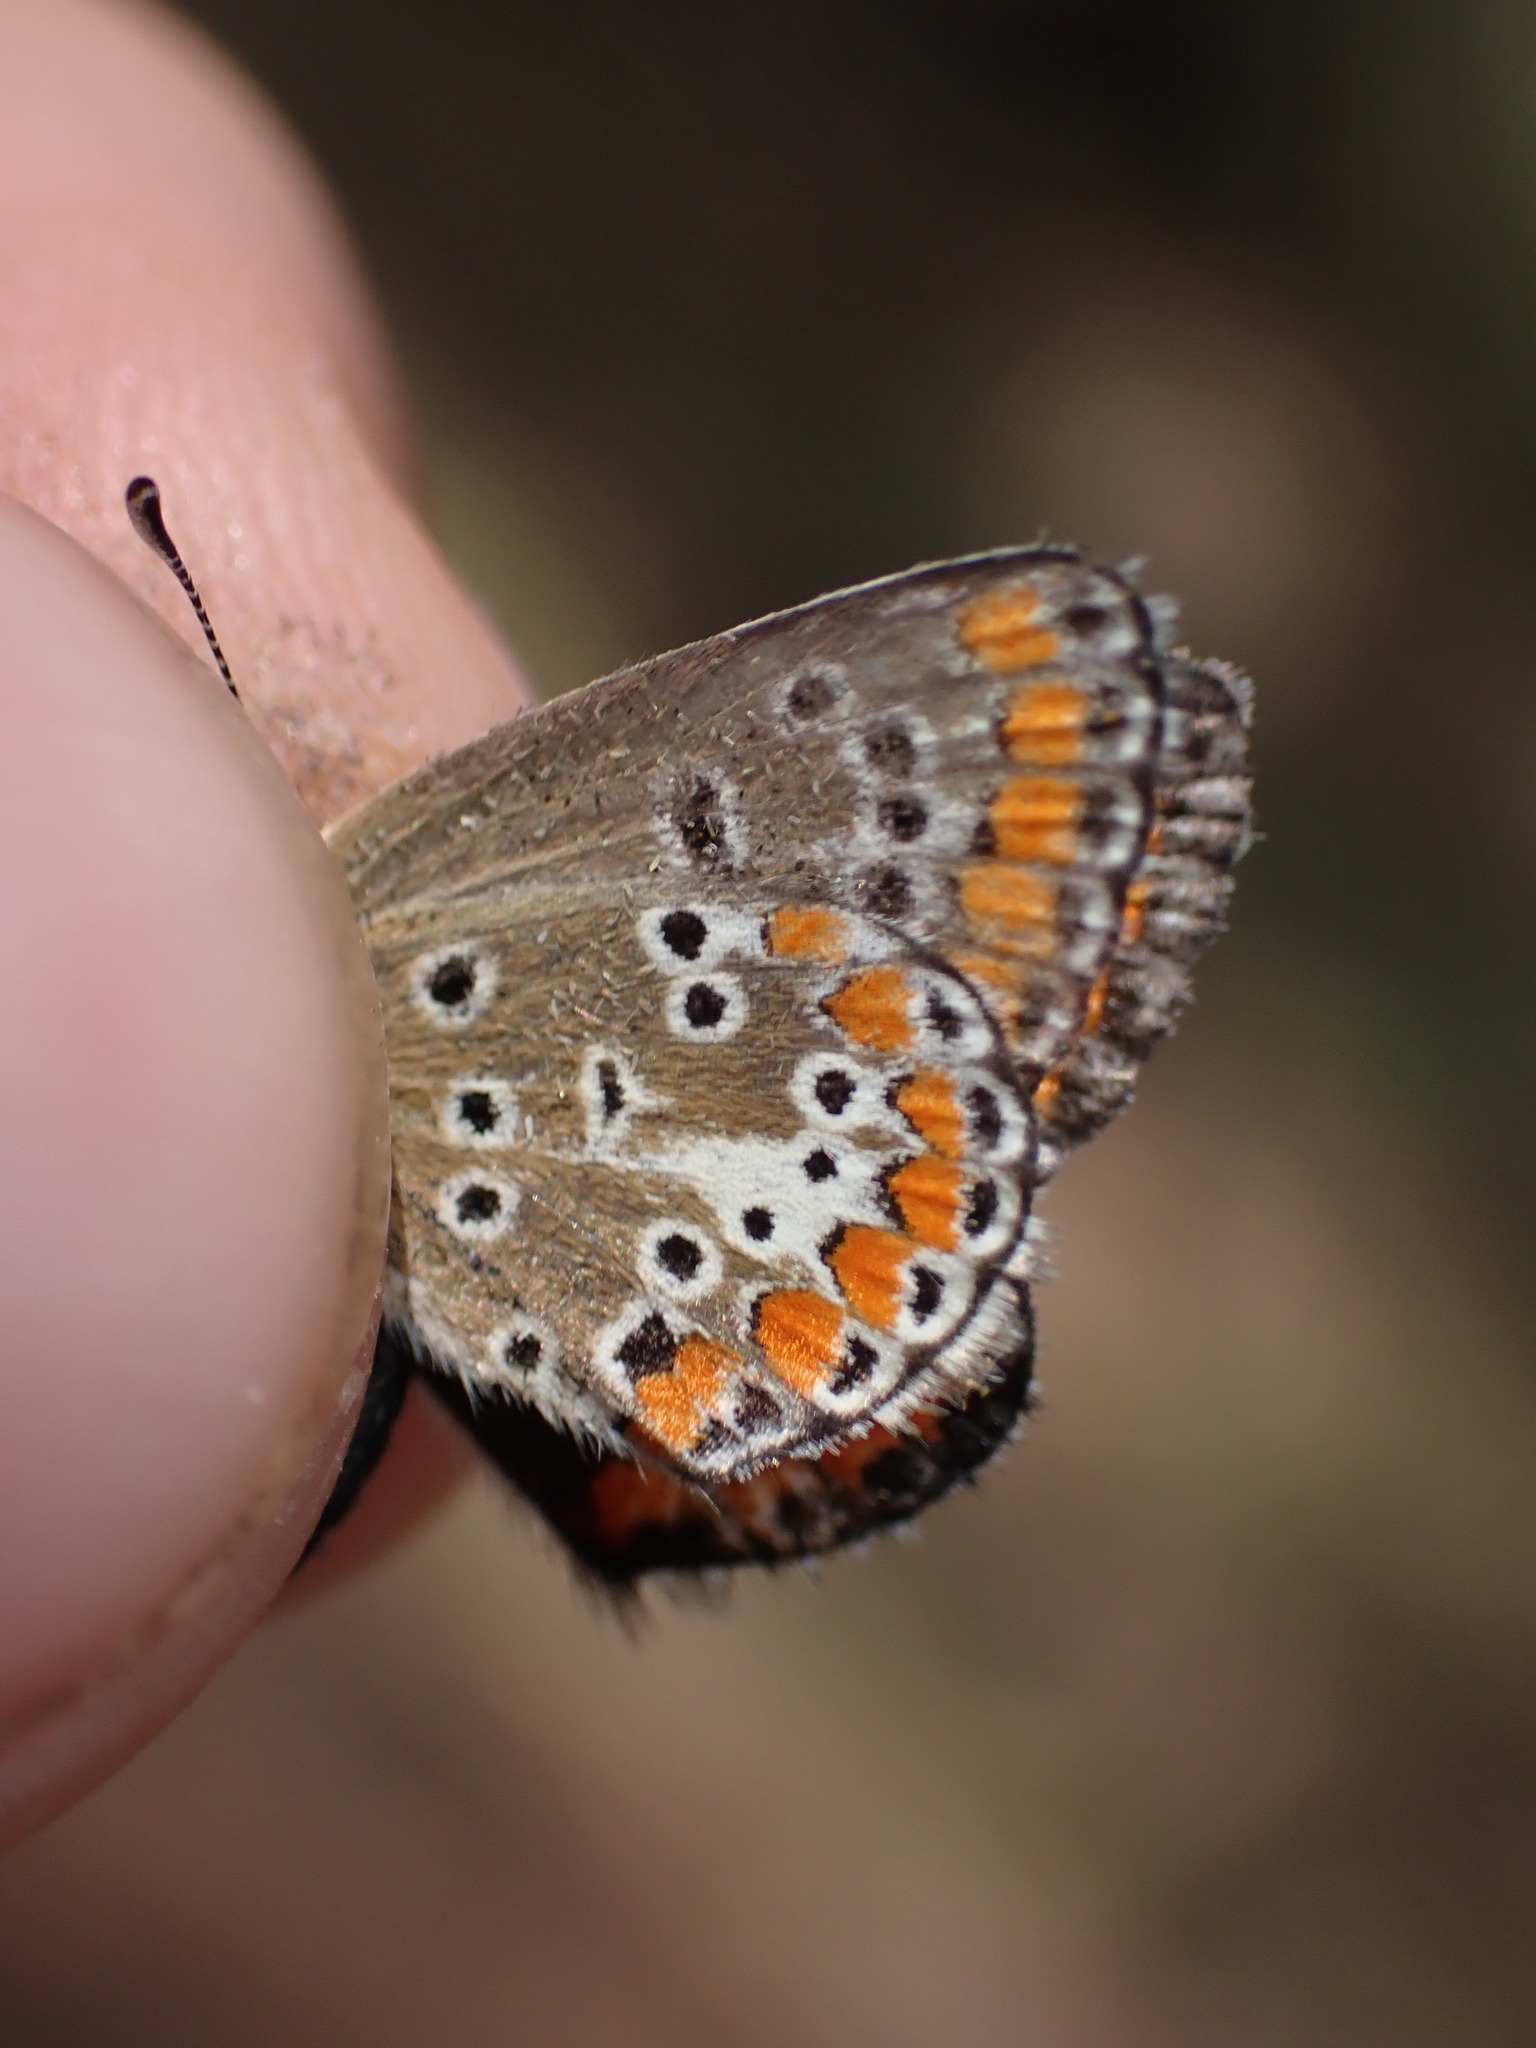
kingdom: Animalia
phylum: Arthropoda
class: Insecta
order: Lepidoptera
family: Lycaenidae
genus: Aricia
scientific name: Aricia agestis
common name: Brown argus
